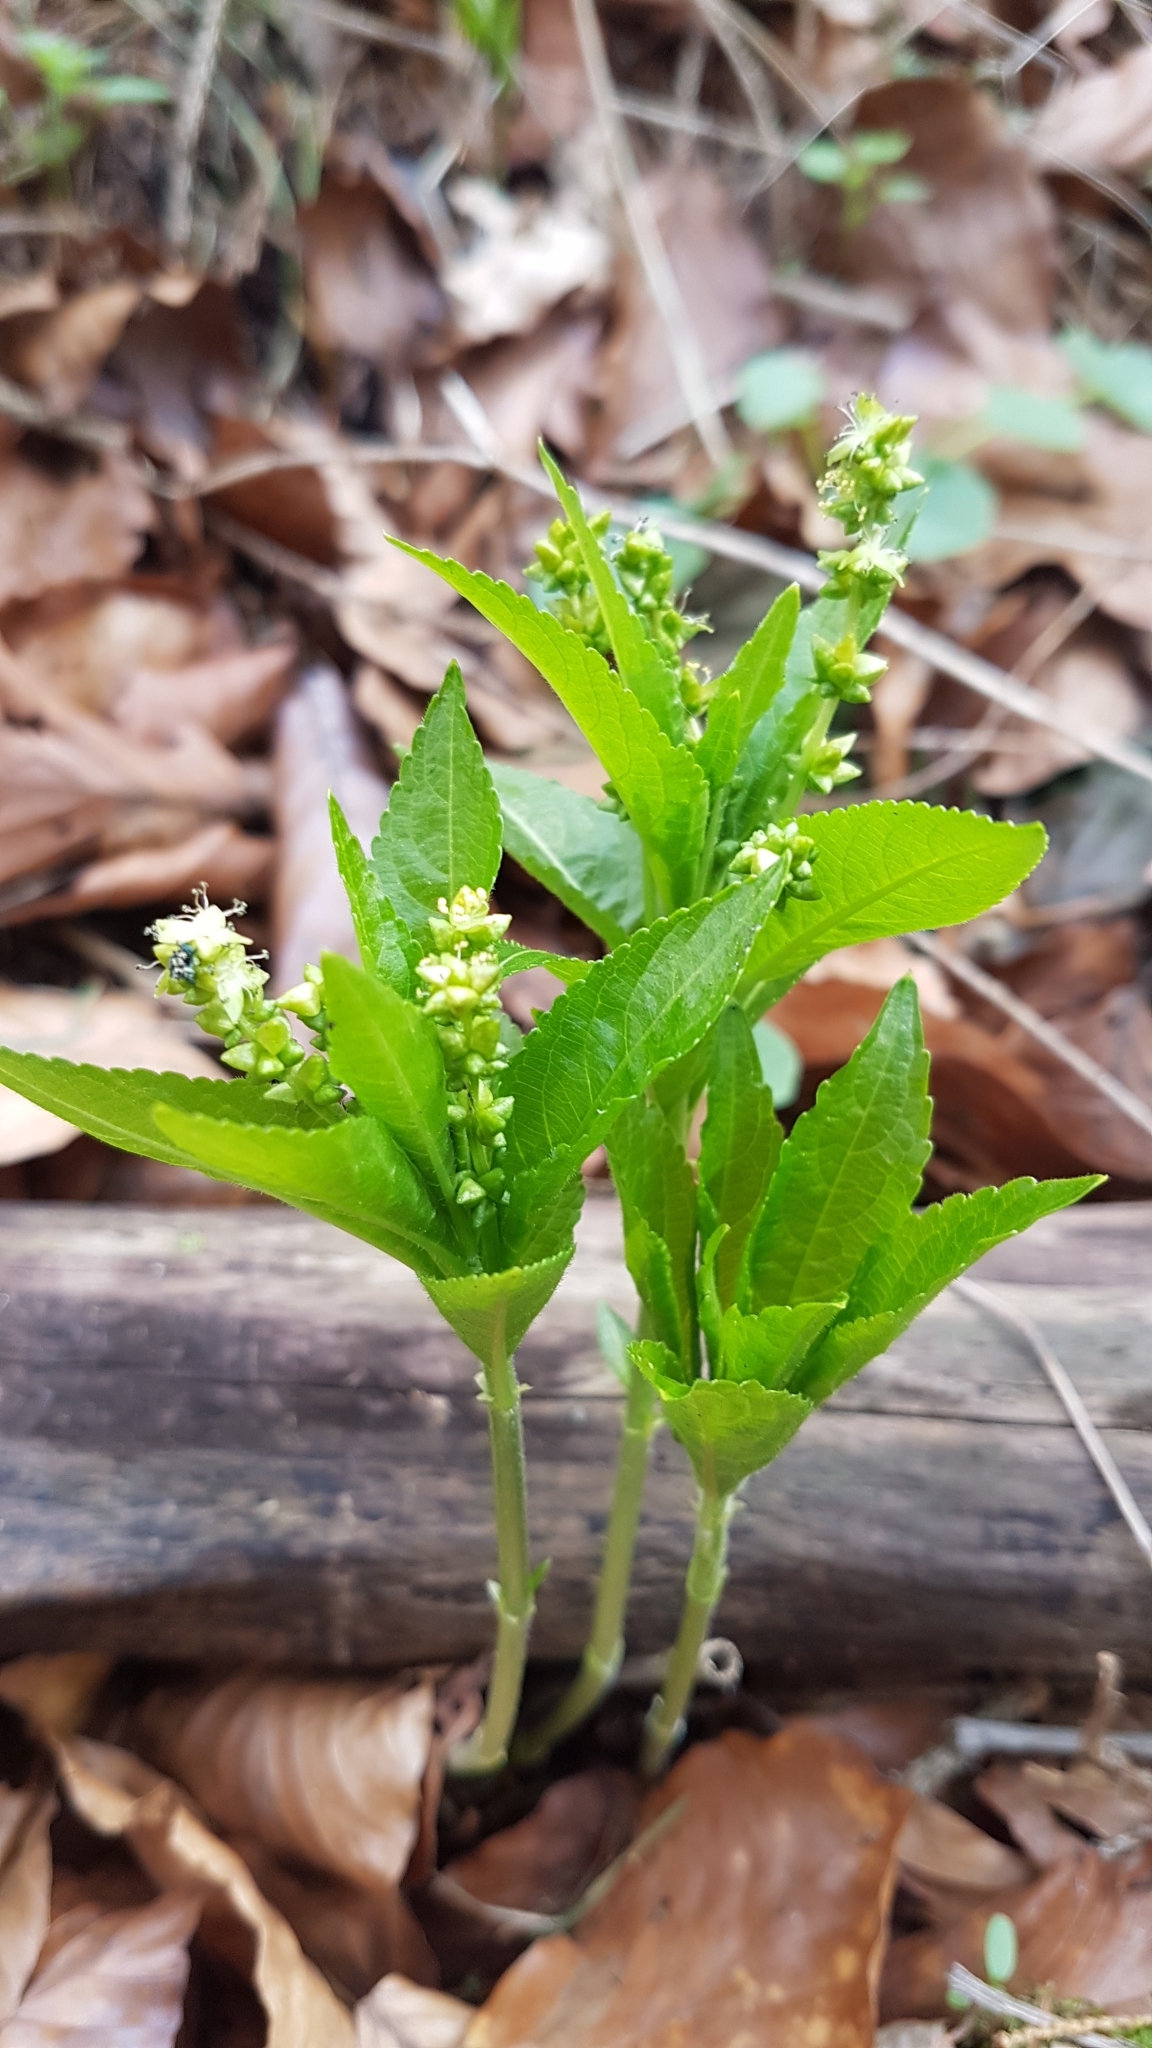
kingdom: Plantae
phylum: Tracheophyta
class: Magnoliopsida
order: Malpighiales
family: Euphorbiaceae
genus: Mercurialis
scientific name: Mercurialis perennis
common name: Dog mercury
